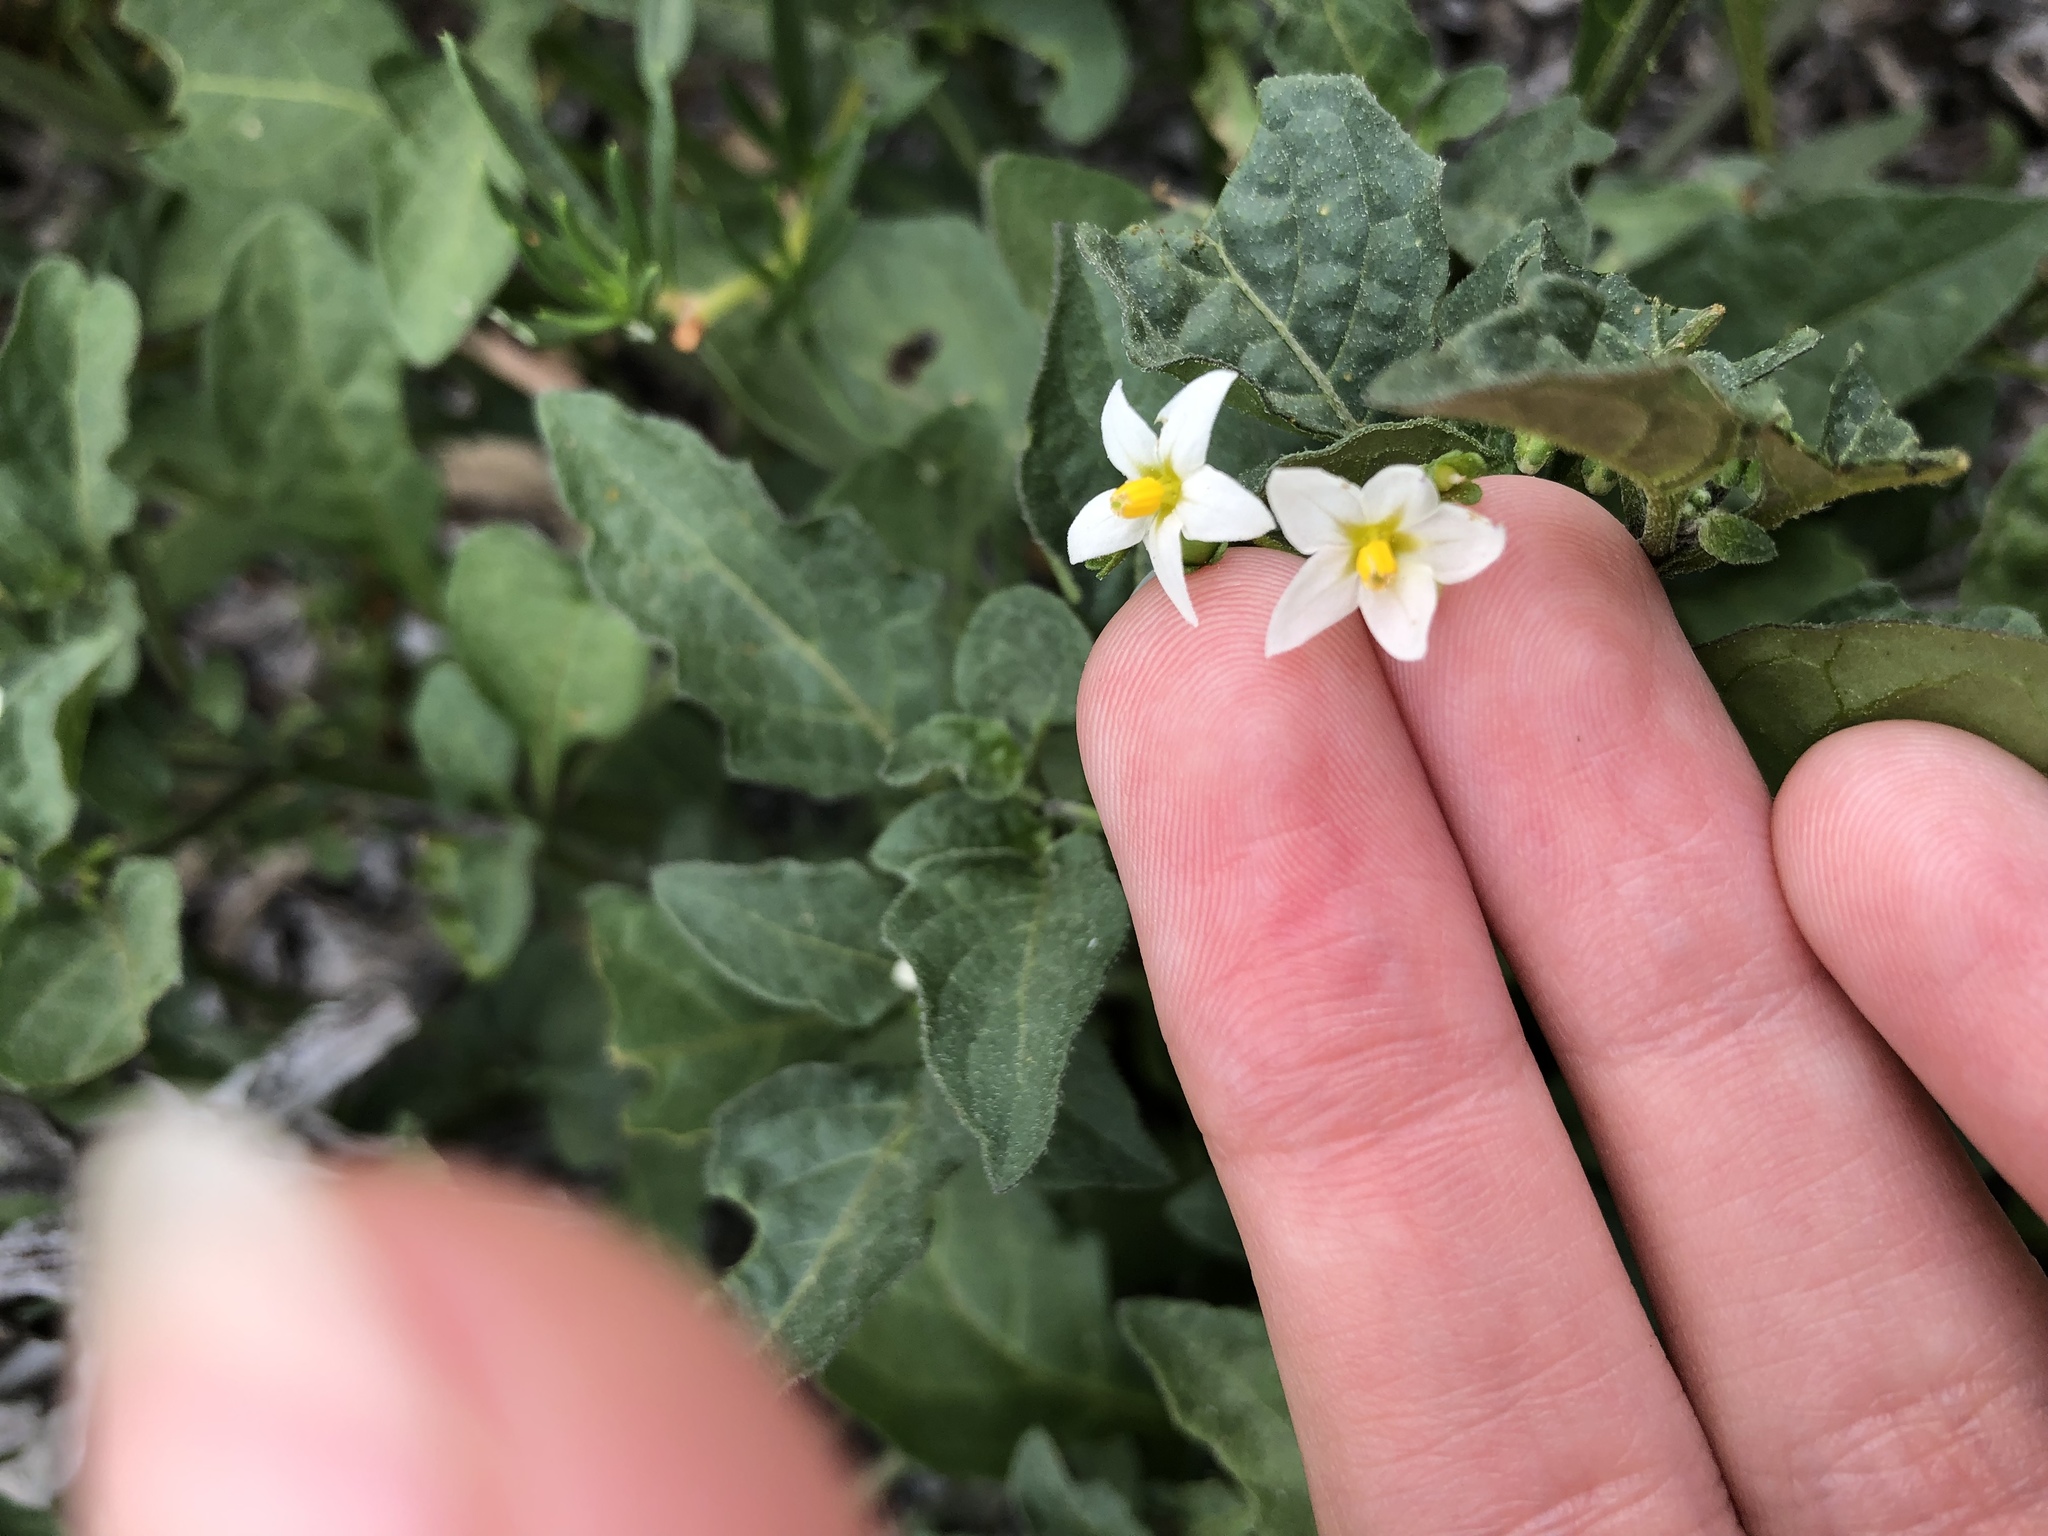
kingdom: Plantae
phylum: Tracheophyta
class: Magnoliopsida
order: Solanales
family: Solanaceae
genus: Solanum
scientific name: Solanum americanum
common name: American black nightshade
